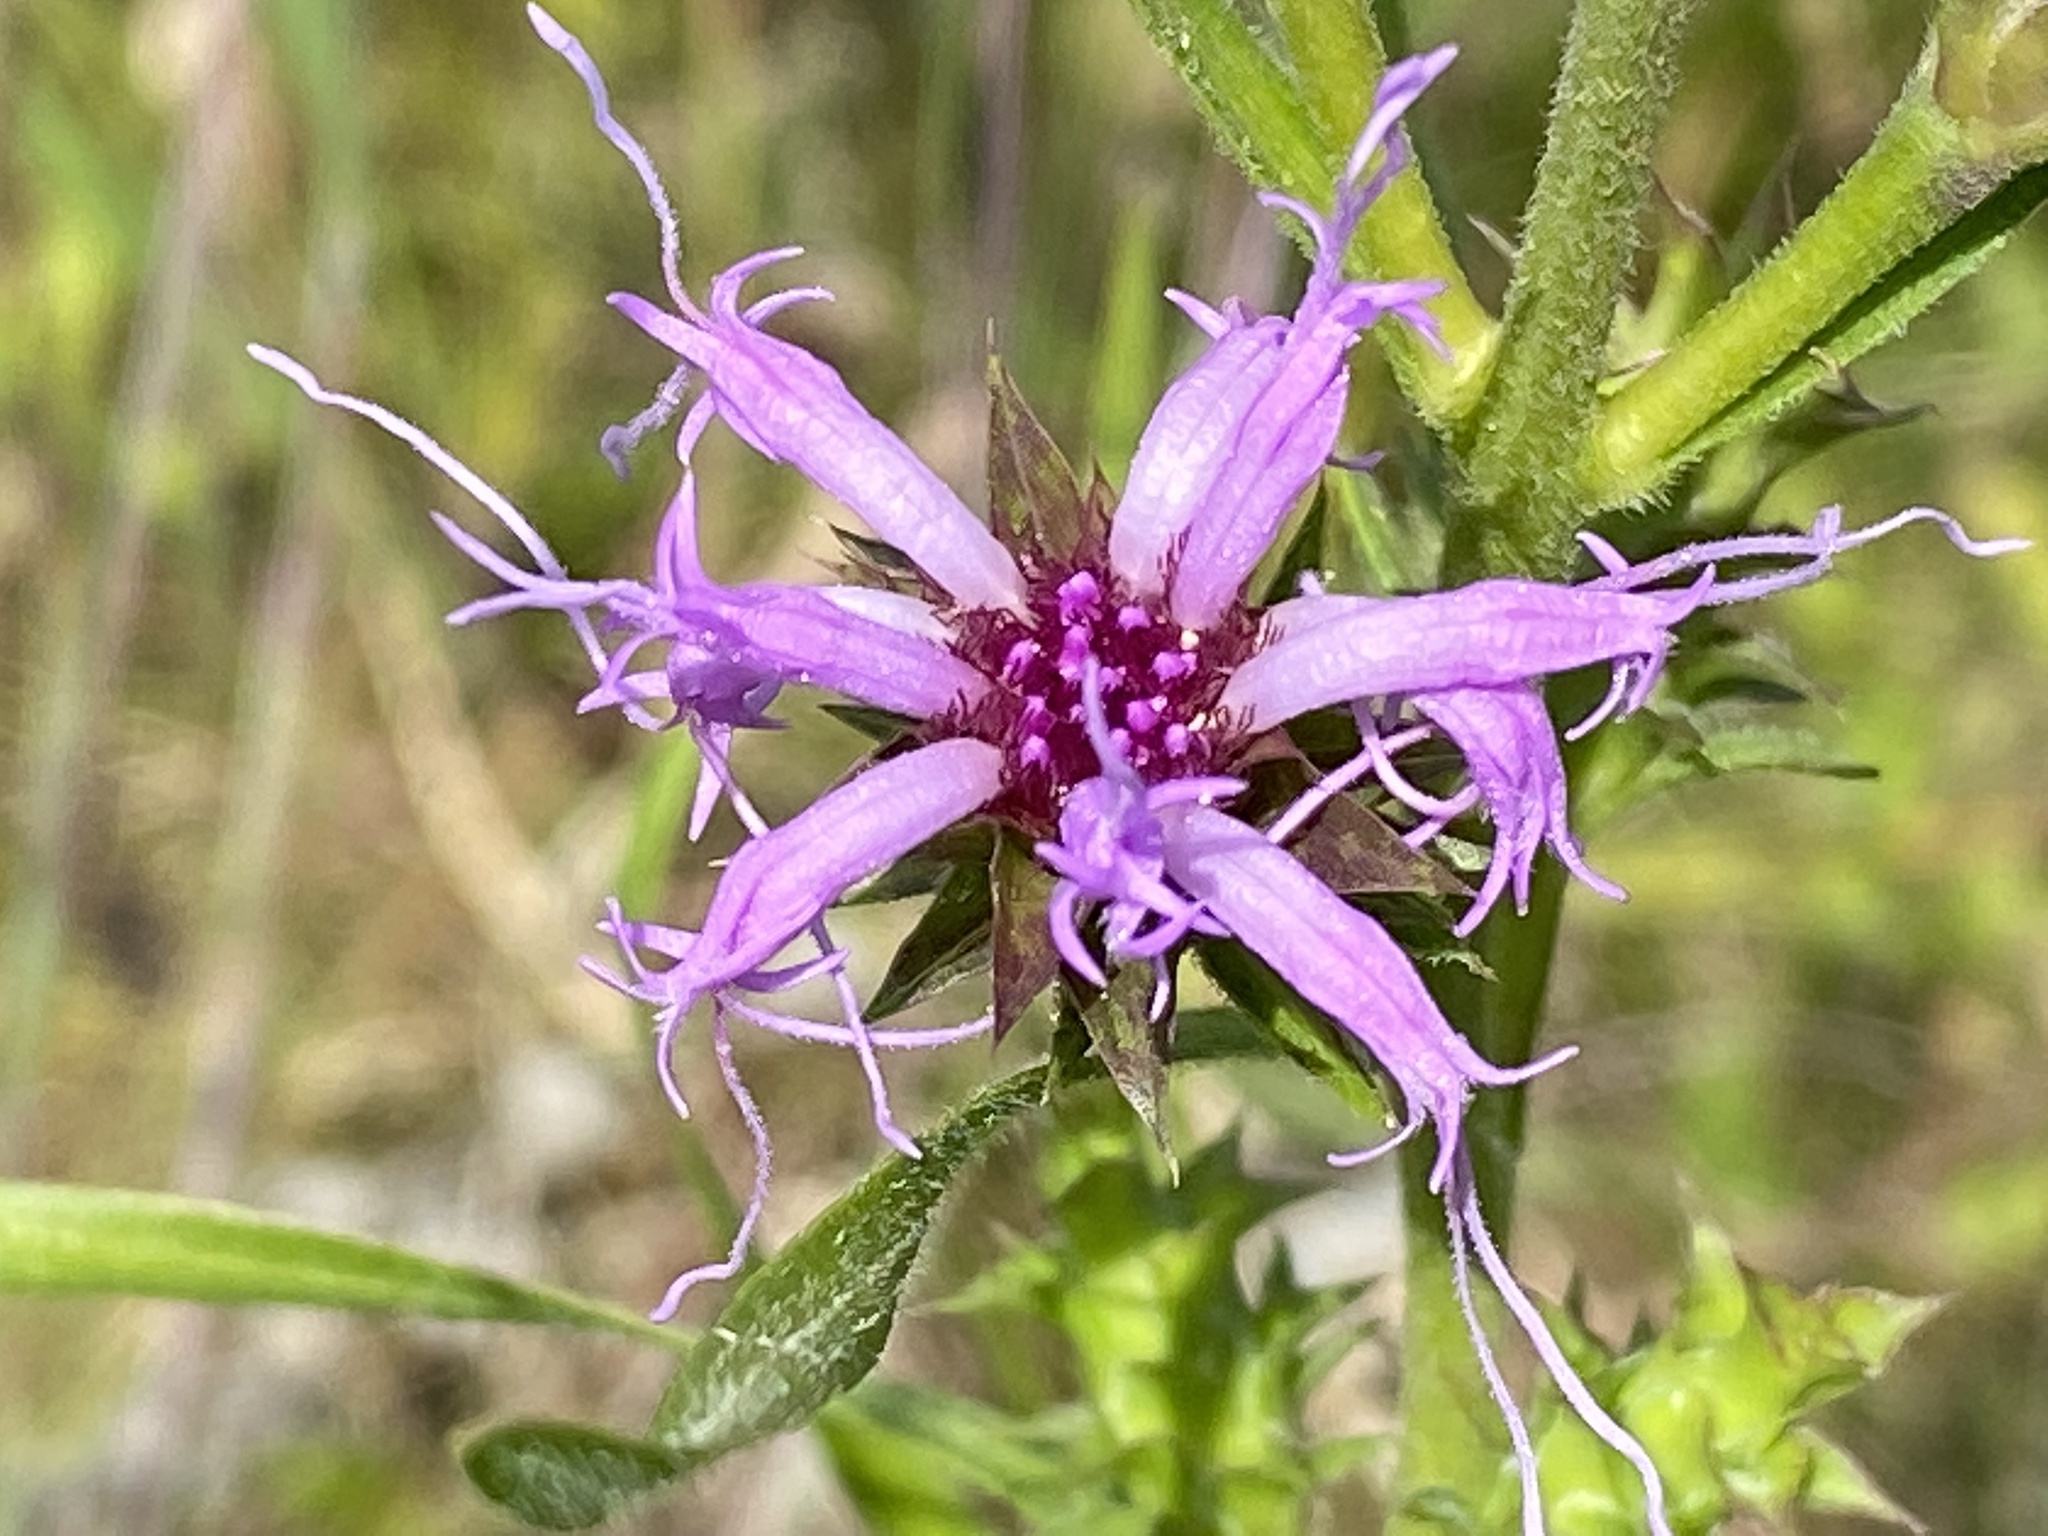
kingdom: Plantae
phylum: Tracheophyta
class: Magnoliopsida
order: Asterales
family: Asteraceae
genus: Liatris
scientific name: Liatris squarrosa
